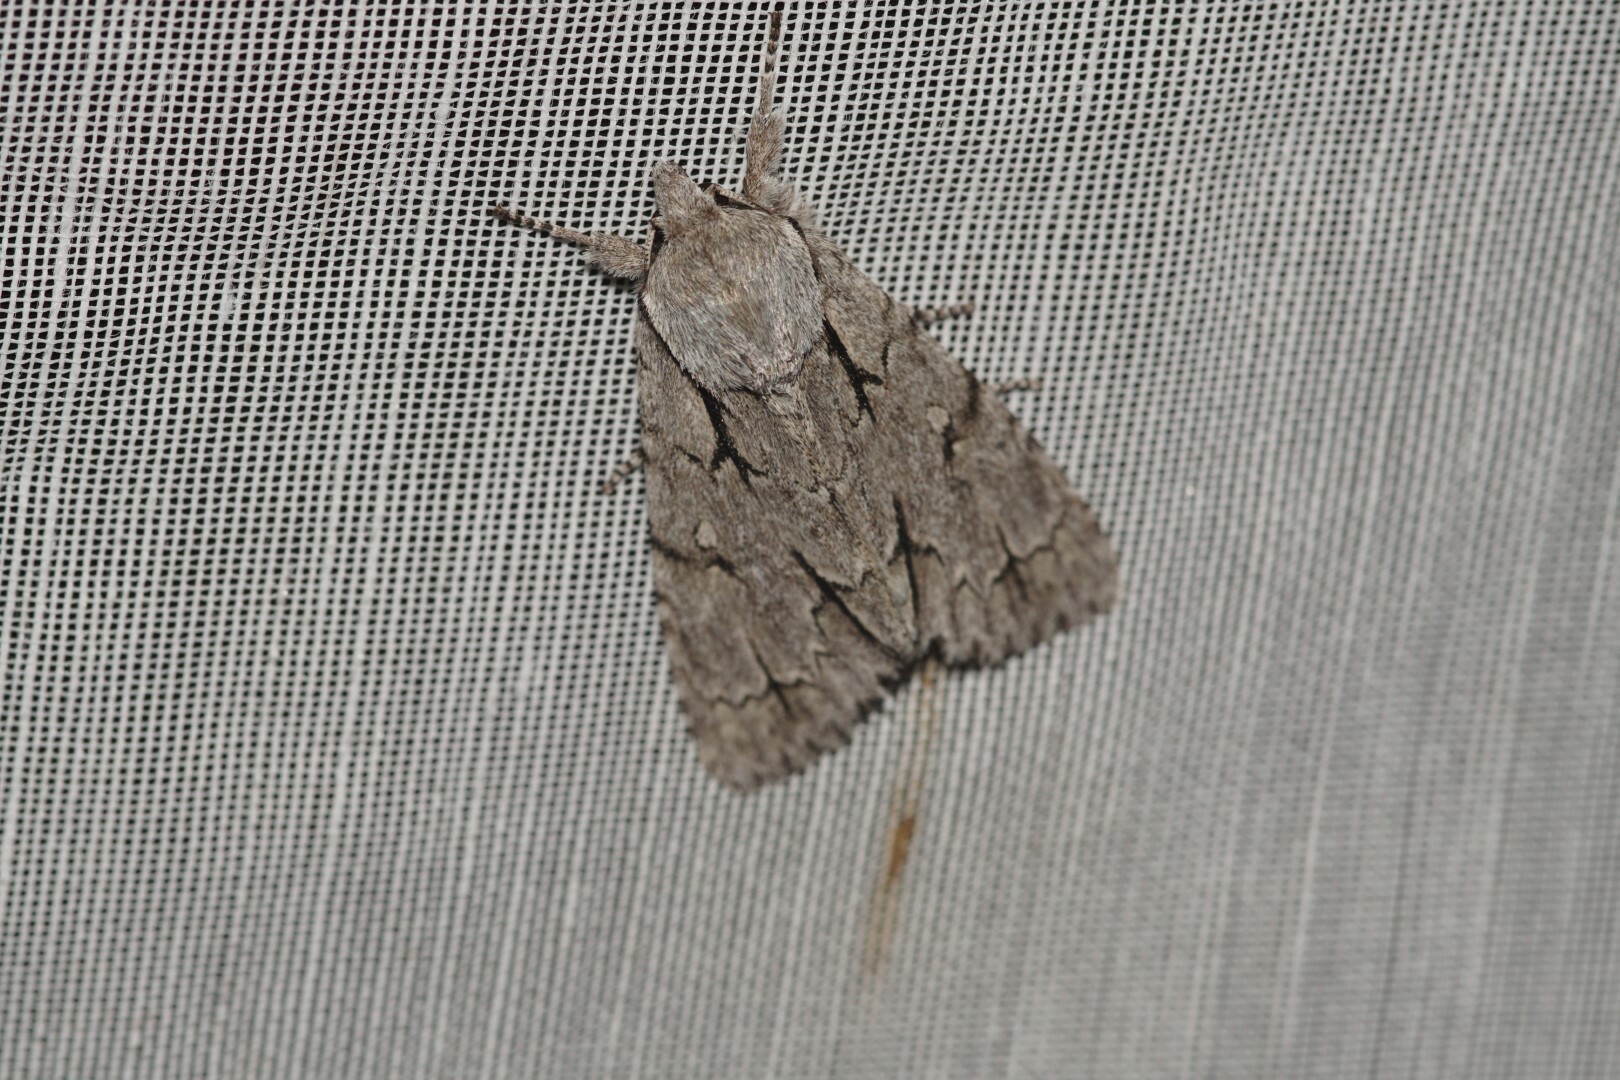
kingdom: Animalia
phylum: Arthropoda
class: Insecta
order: Lepidoptera
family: Noctuidae
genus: Acronicta
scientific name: Acronicta
